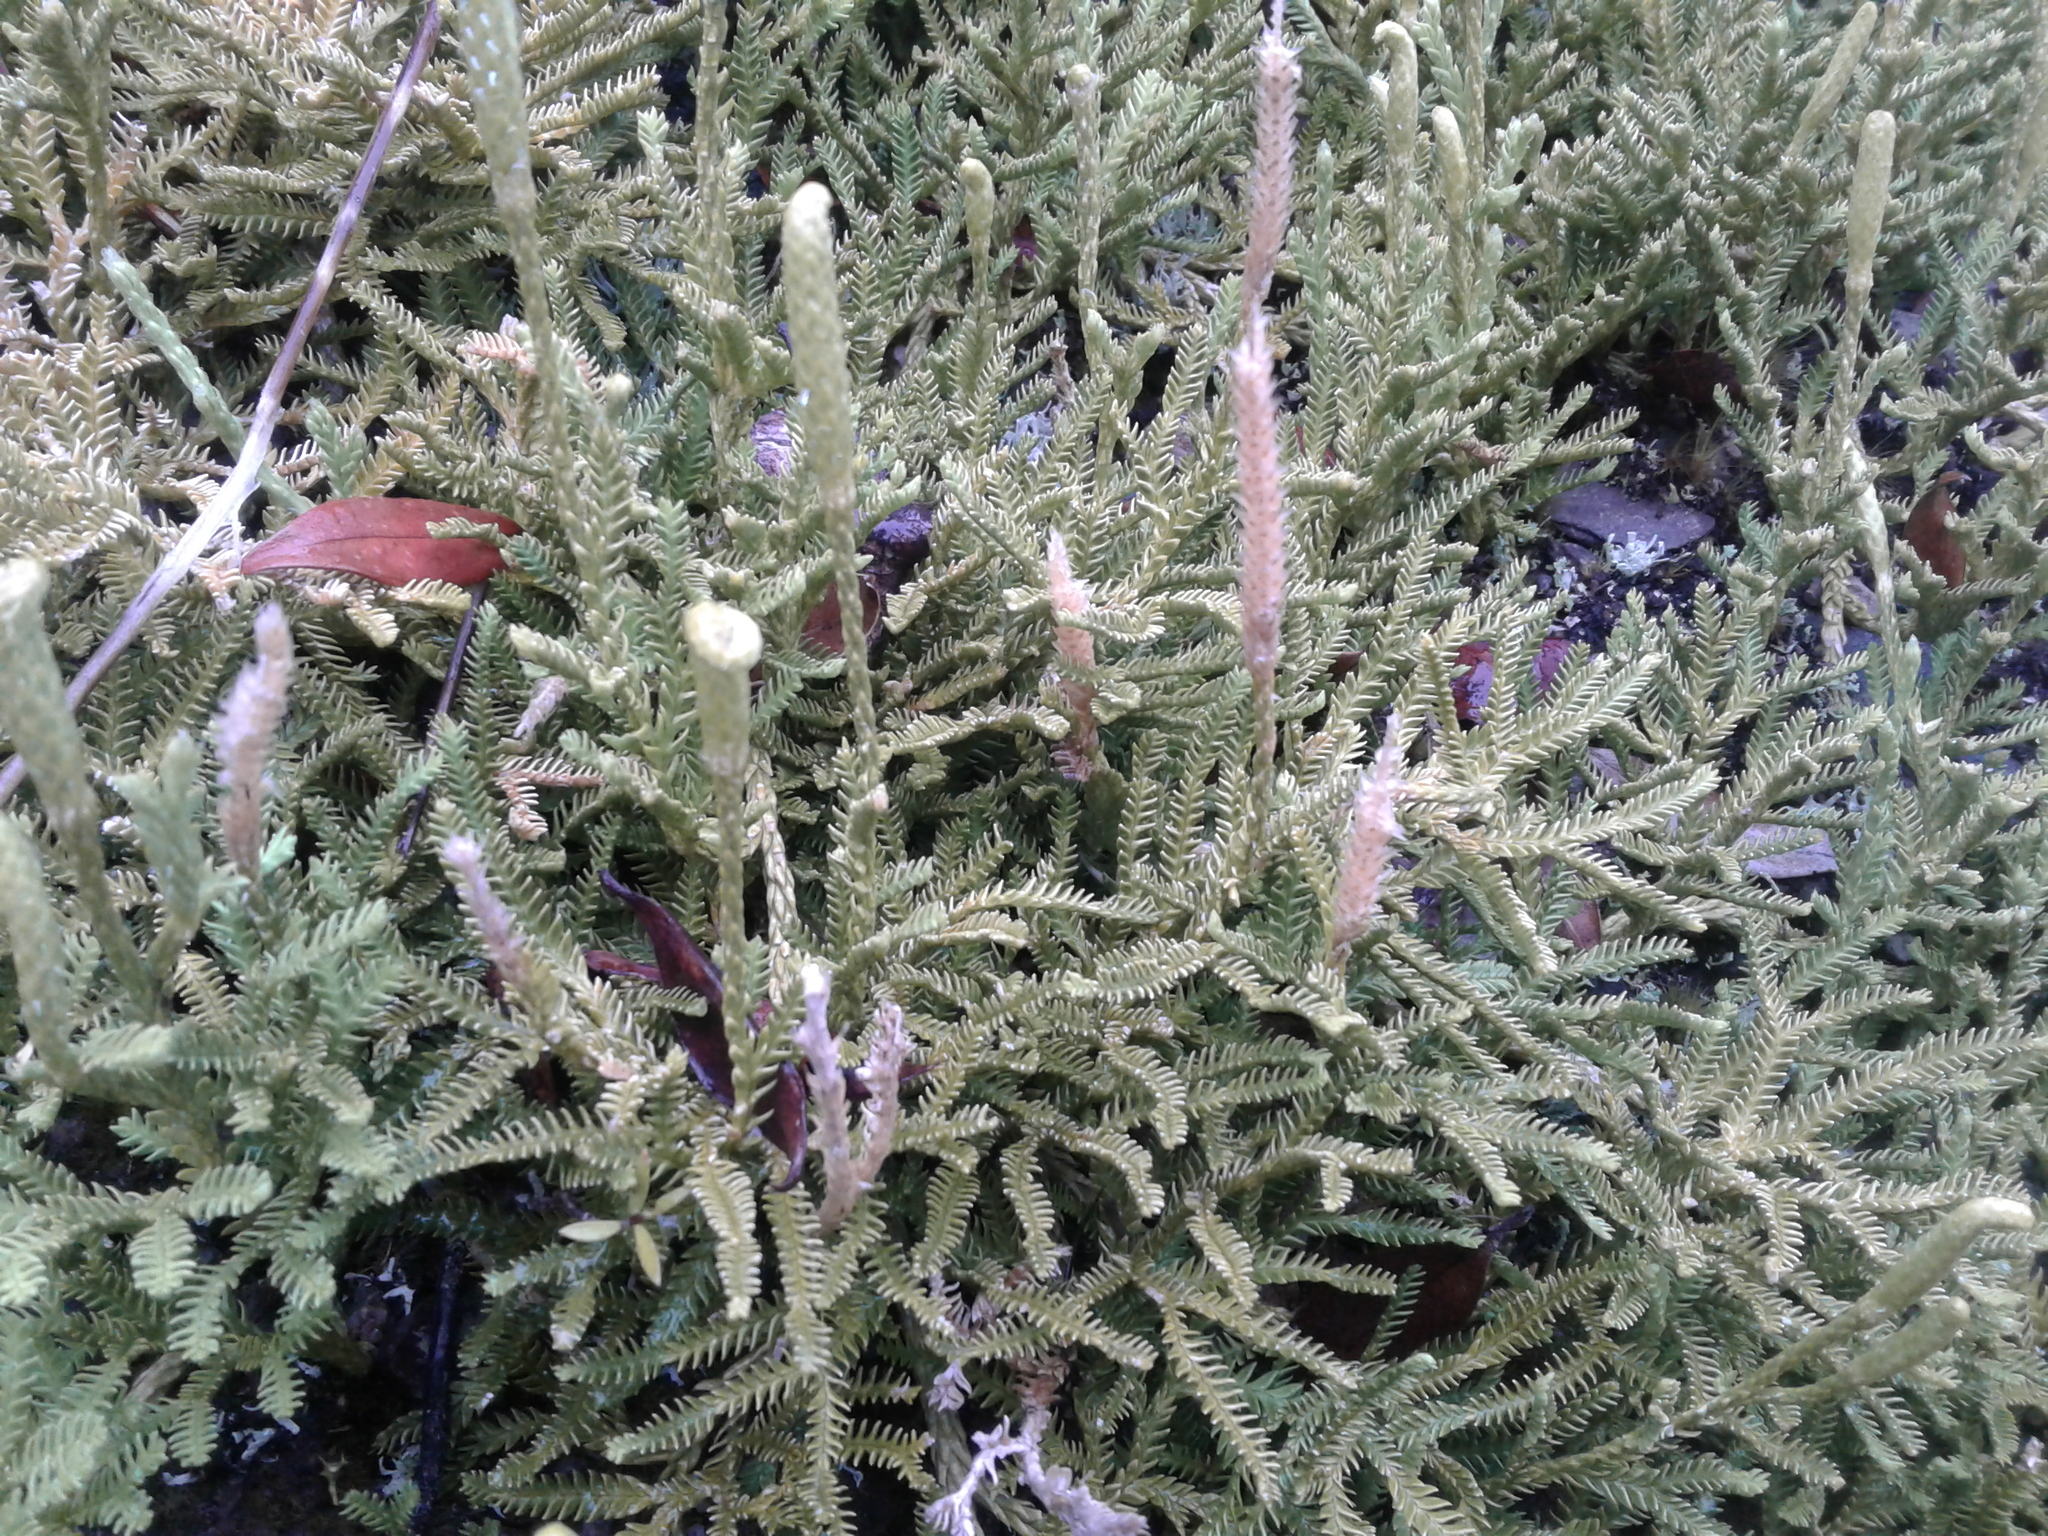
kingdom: Plantae
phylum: Tracheophyta
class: Lycopodiopsida
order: Lycopodiales
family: Lycopodiaceae
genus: Diphasium
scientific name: Diphasium scariosum
